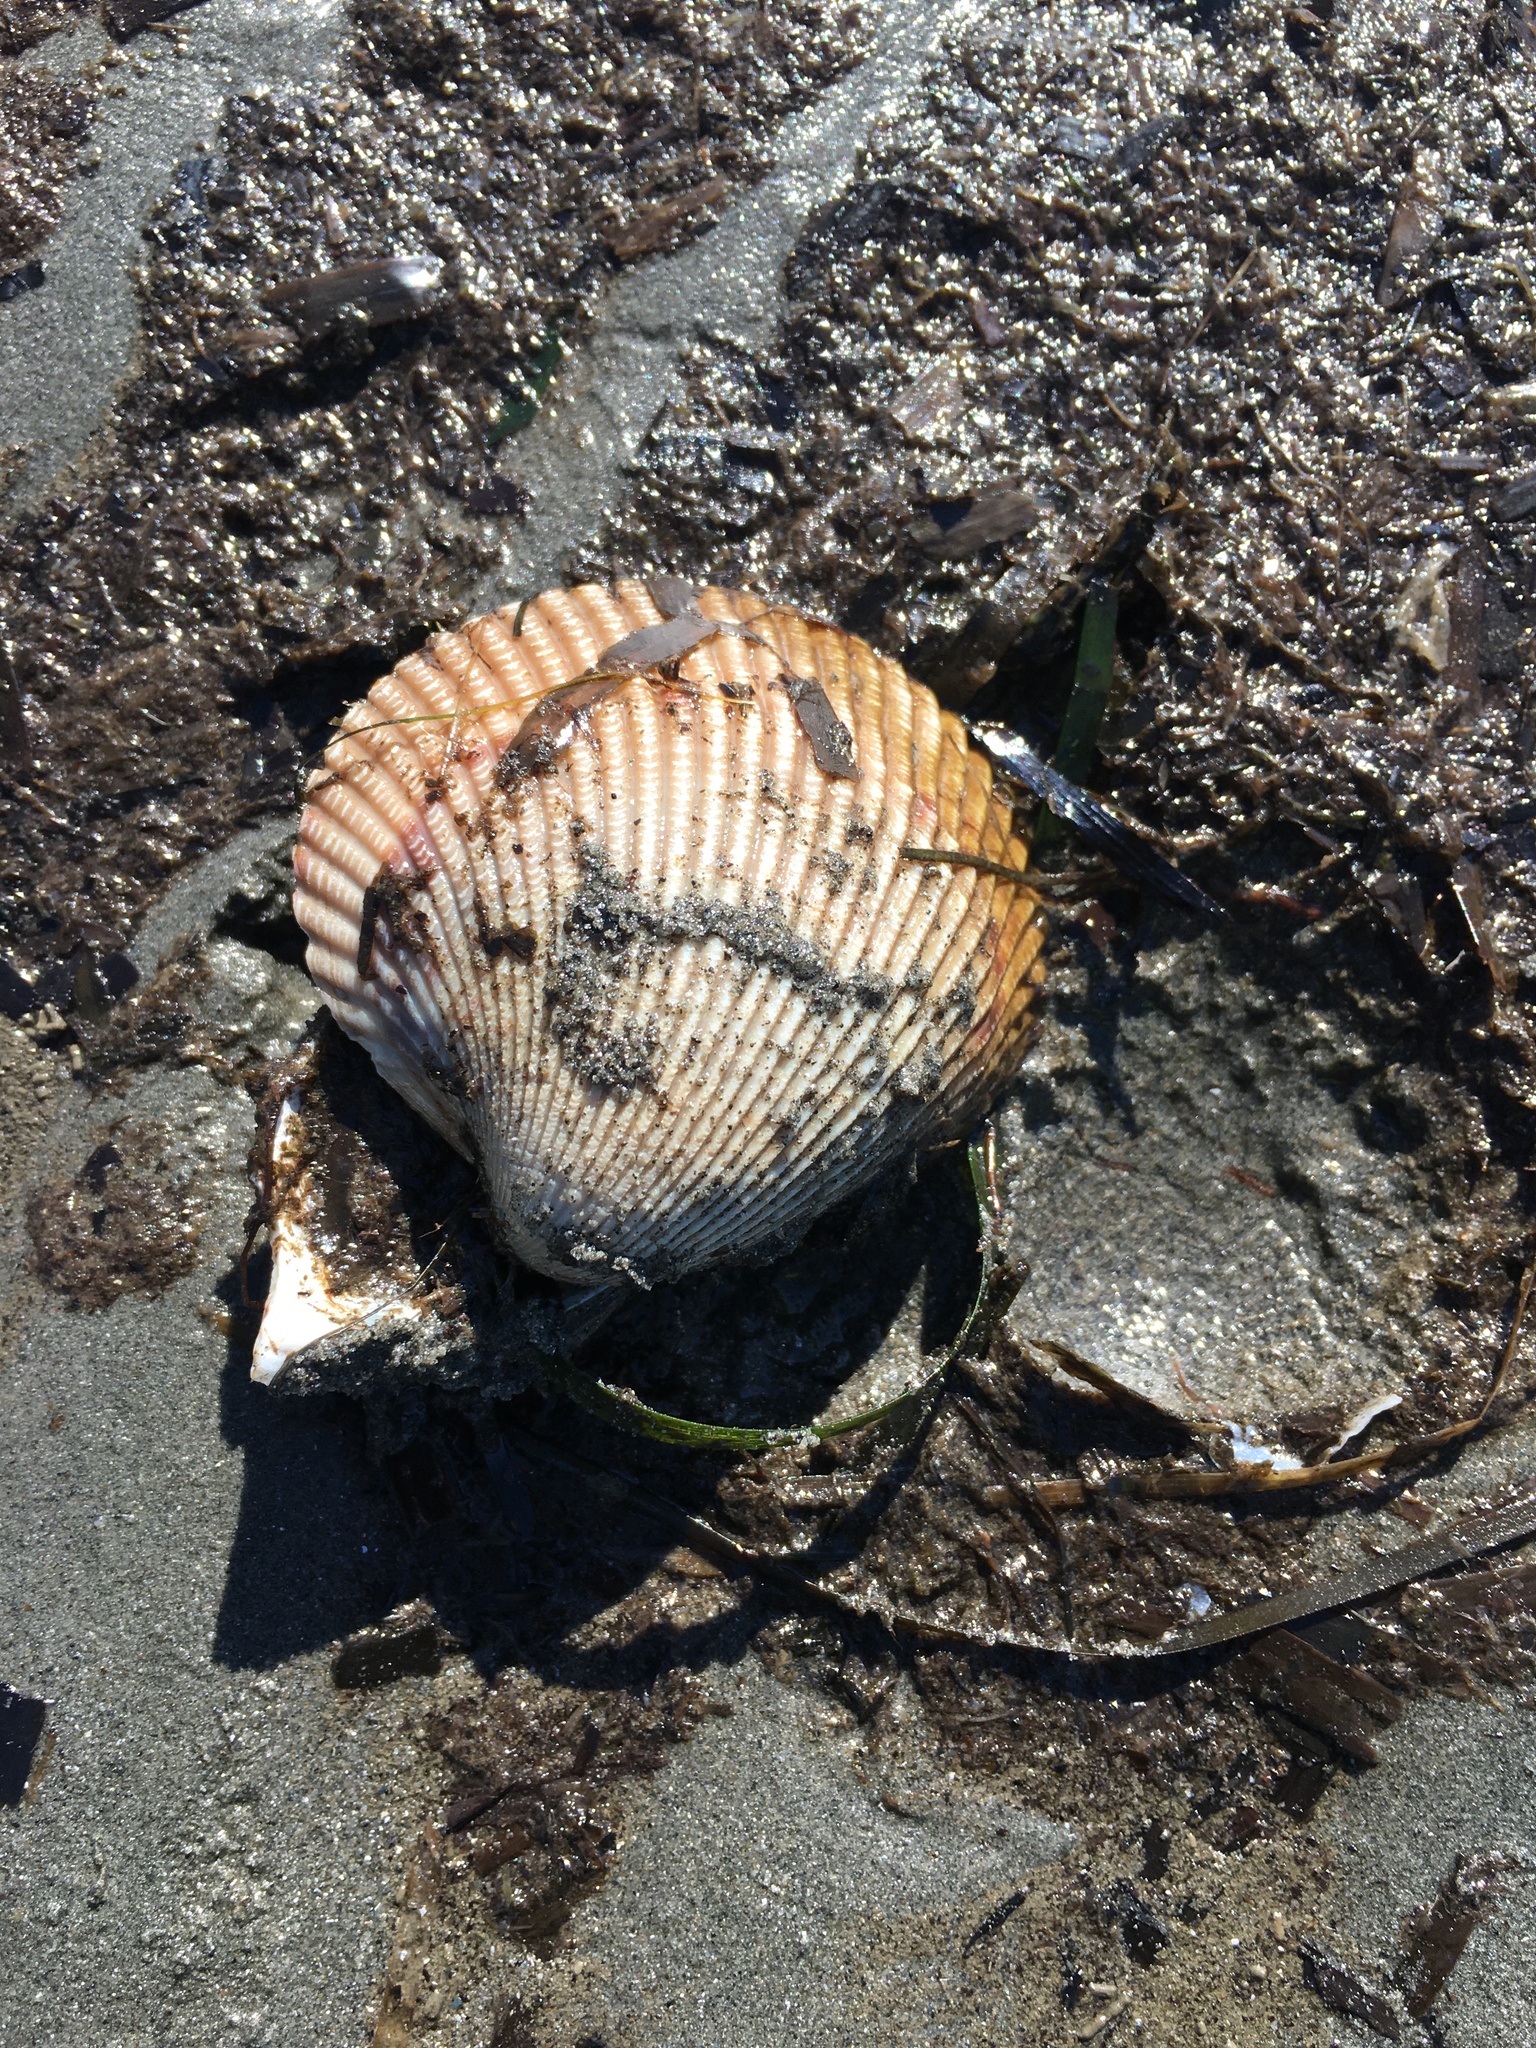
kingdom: Animalia
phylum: Mollusca
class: Bivalvia
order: Cardiida
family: Cardiidae
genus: Clinocardium
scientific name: Clinocardium nuttallii
